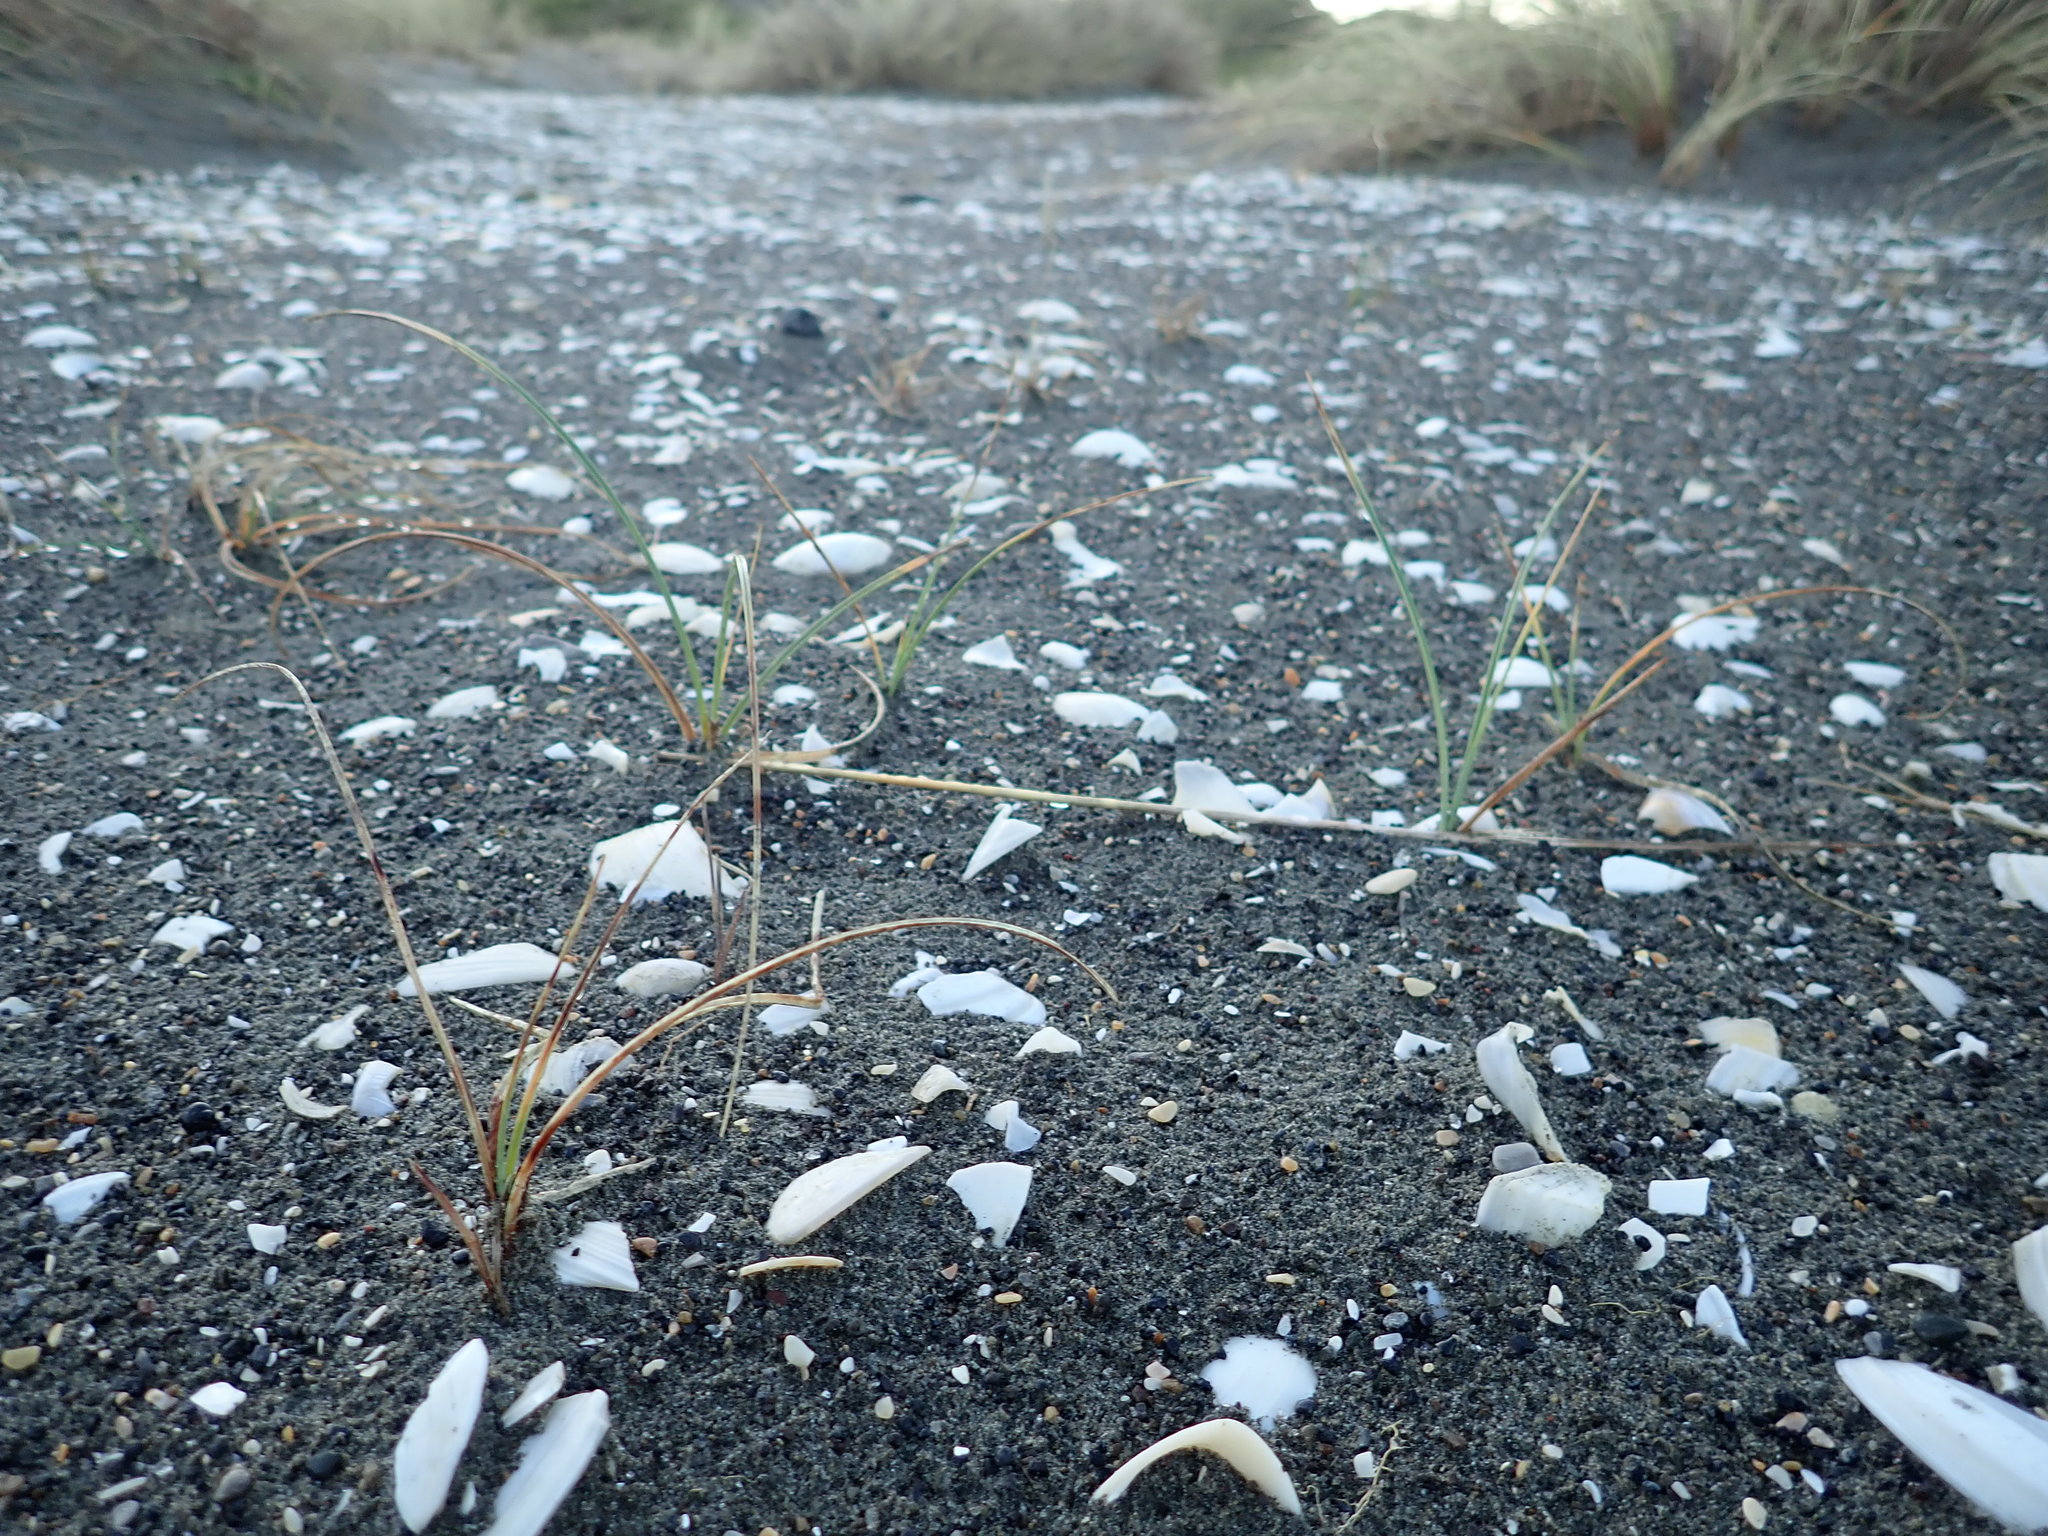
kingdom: Plantae
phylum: Tracheophyta
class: Liliopsida
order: Poales
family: Cyperaceae
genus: Carex
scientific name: Carex pumila
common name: Dwarf sedge
